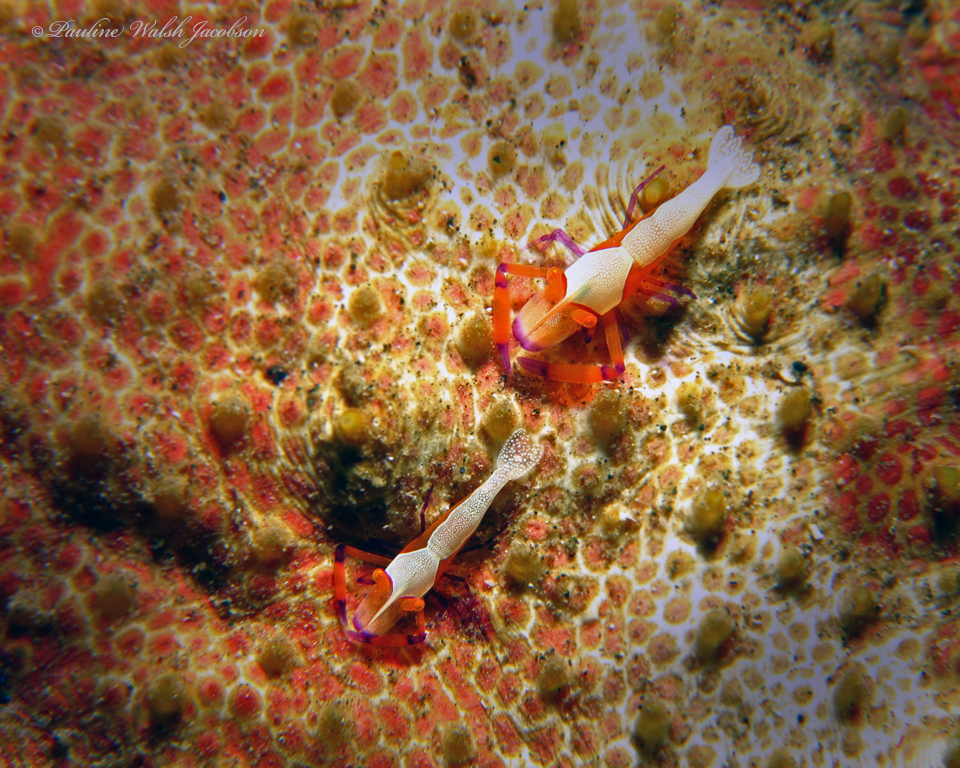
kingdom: Animalia
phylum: Arthropoda
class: Malacostraca
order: Decapoda
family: Palaemonidae
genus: Periclimenes
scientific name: Periclimenes rex
